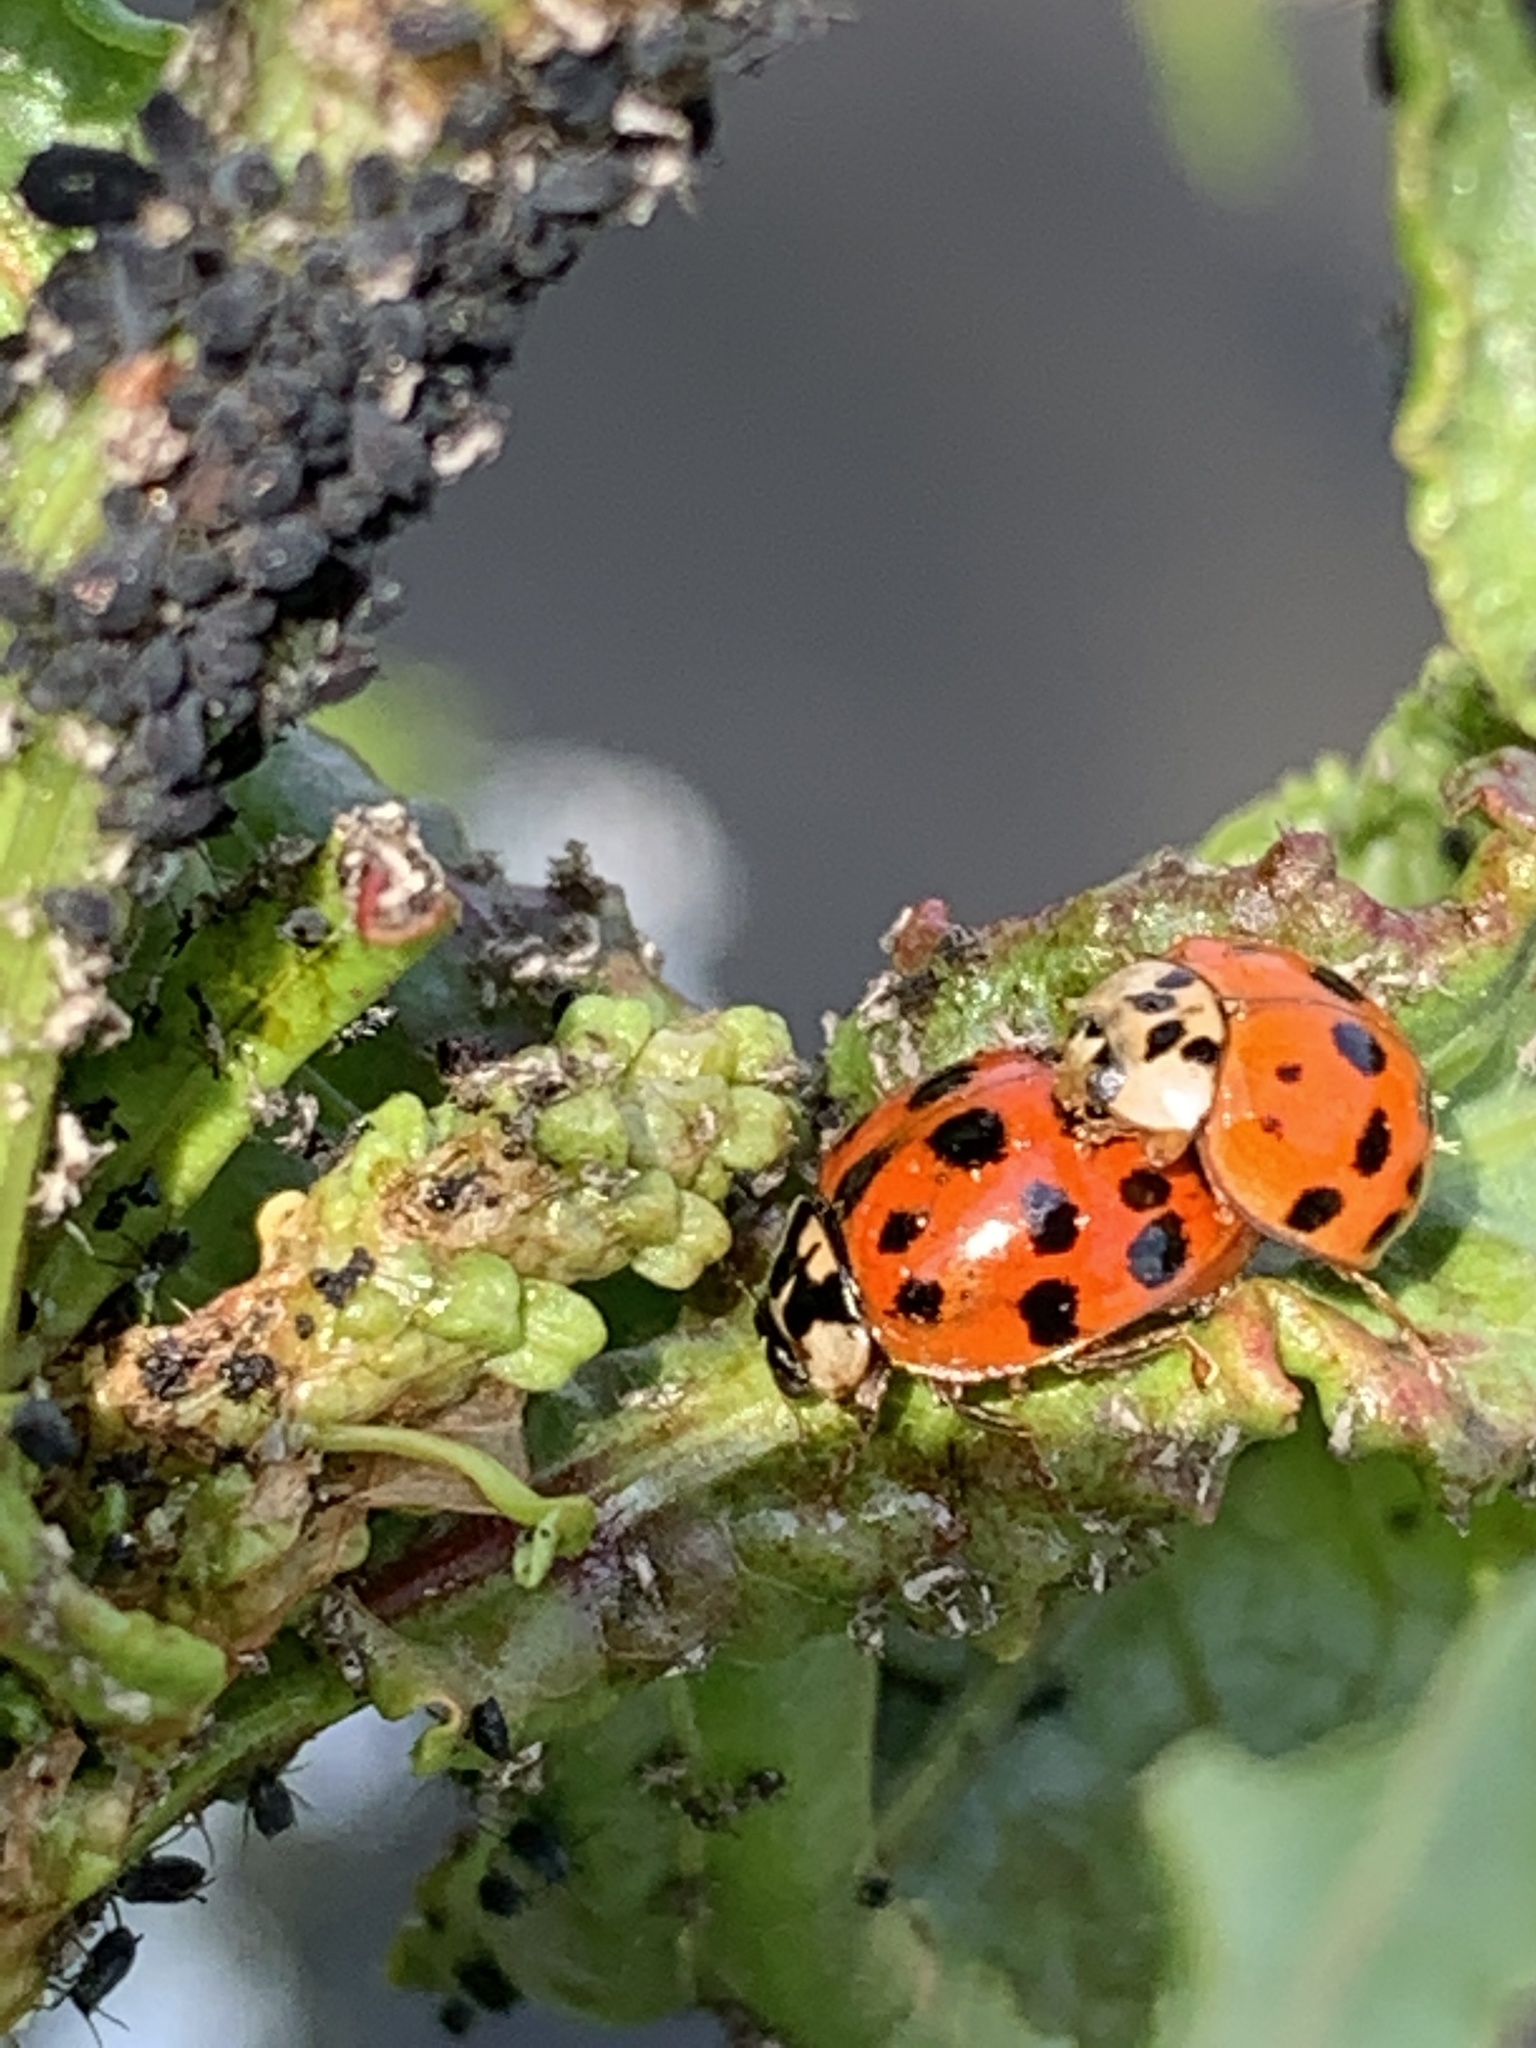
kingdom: Animalia
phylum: Arthropoda
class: Insecta
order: Coleoptera
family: Coccinellidae
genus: Harmonia
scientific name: Harmonia axyridis
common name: Harlequin ladybird
